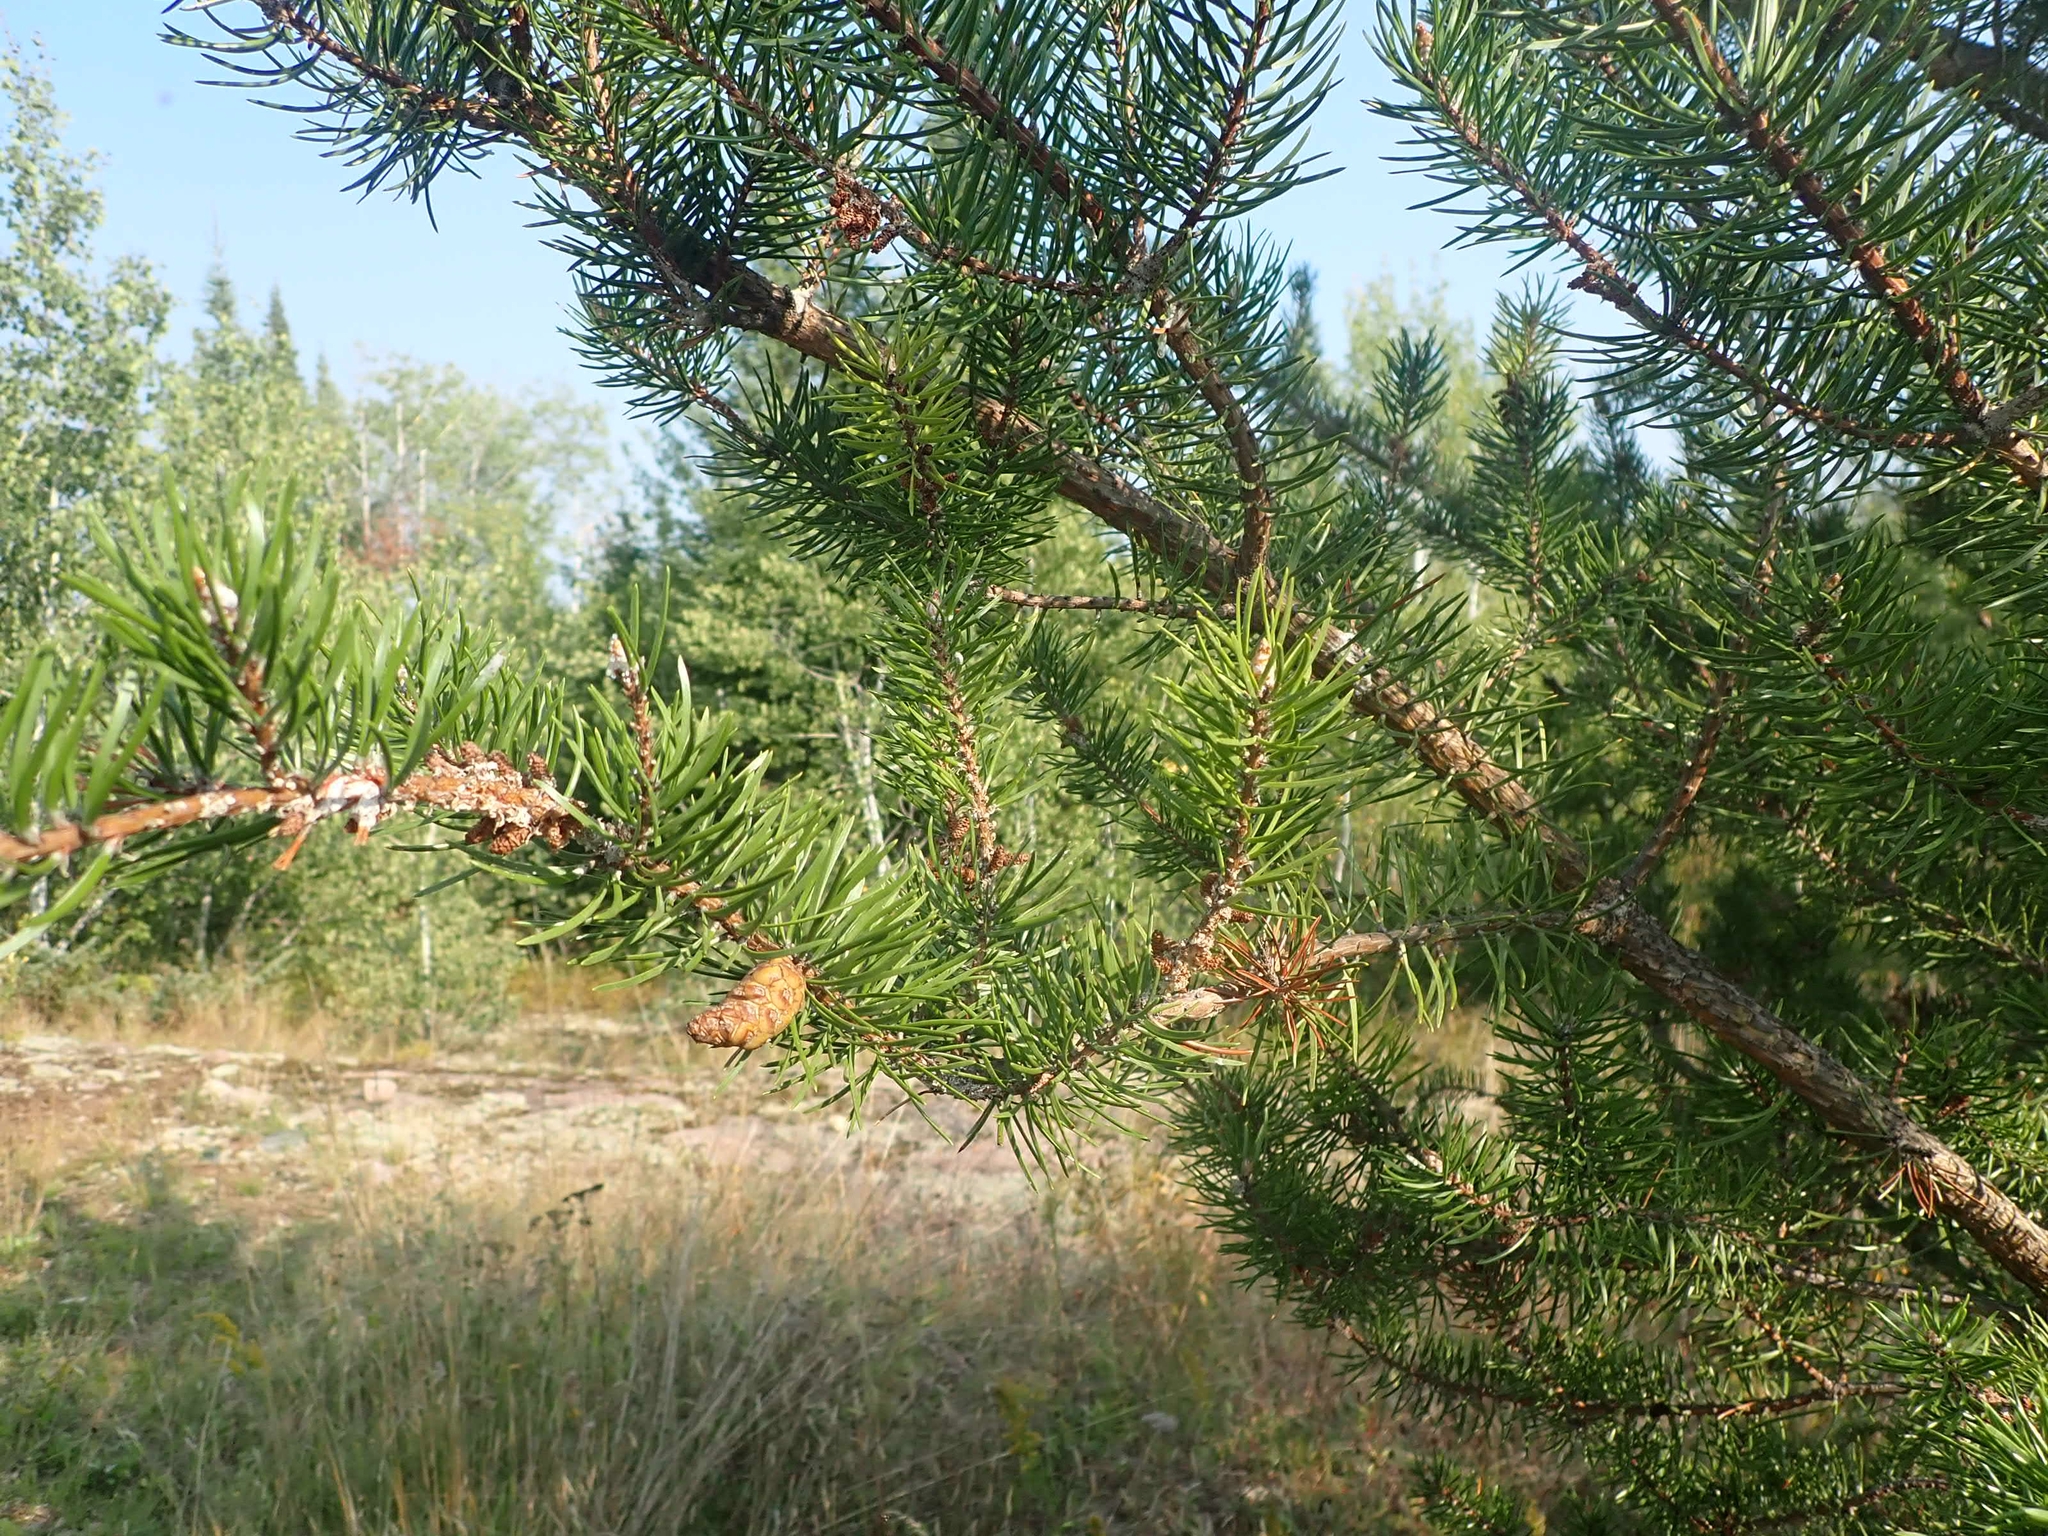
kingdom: Plantae
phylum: Tracheophyta
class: Pinopsida
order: Pinales
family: Pinaceae
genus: Pinus
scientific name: Pinus banksiana
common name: Jack pine
